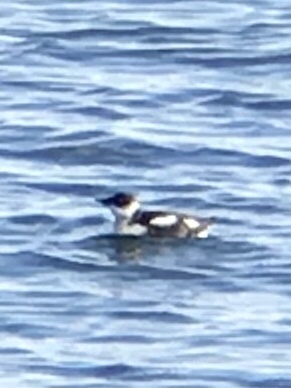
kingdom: Animalia
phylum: Chordata
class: Aves
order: Charadriiformes
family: Alcidae
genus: Brachyramphus
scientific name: Brachyramphus marmoratus
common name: Marbled murrelet
